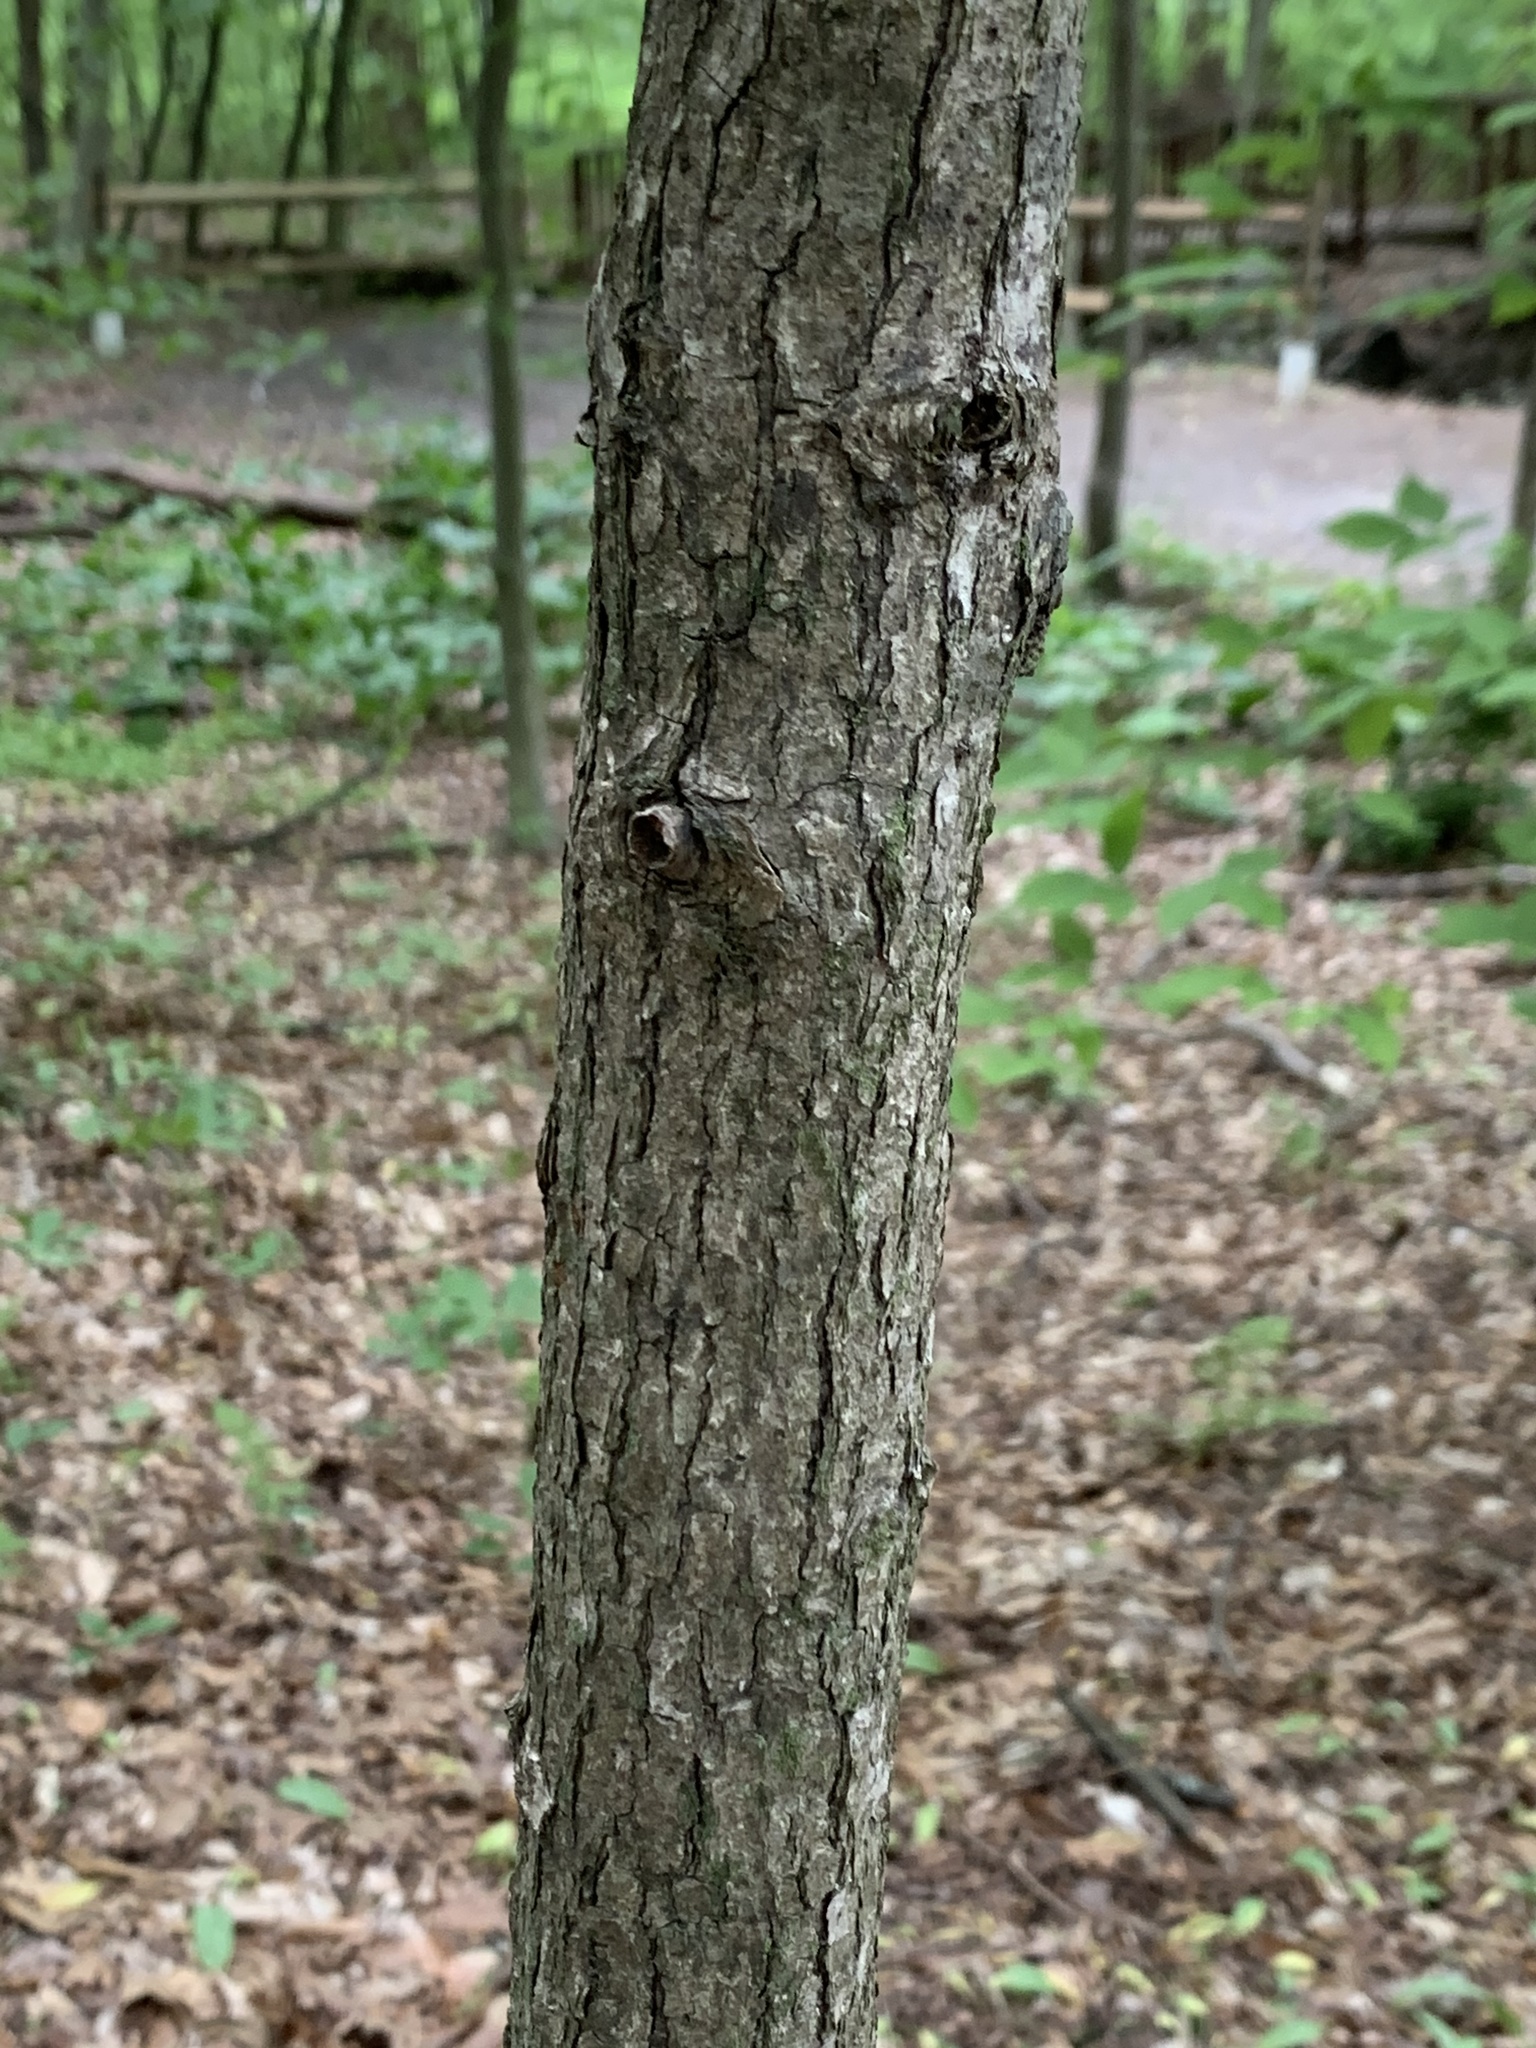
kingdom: Plantae
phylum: Tracheophyta
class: Magnoliopsida
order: Cornales
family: Nyssaceae
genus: Nyssa
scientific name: Nyssa sylvatica
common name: Black tupelo
